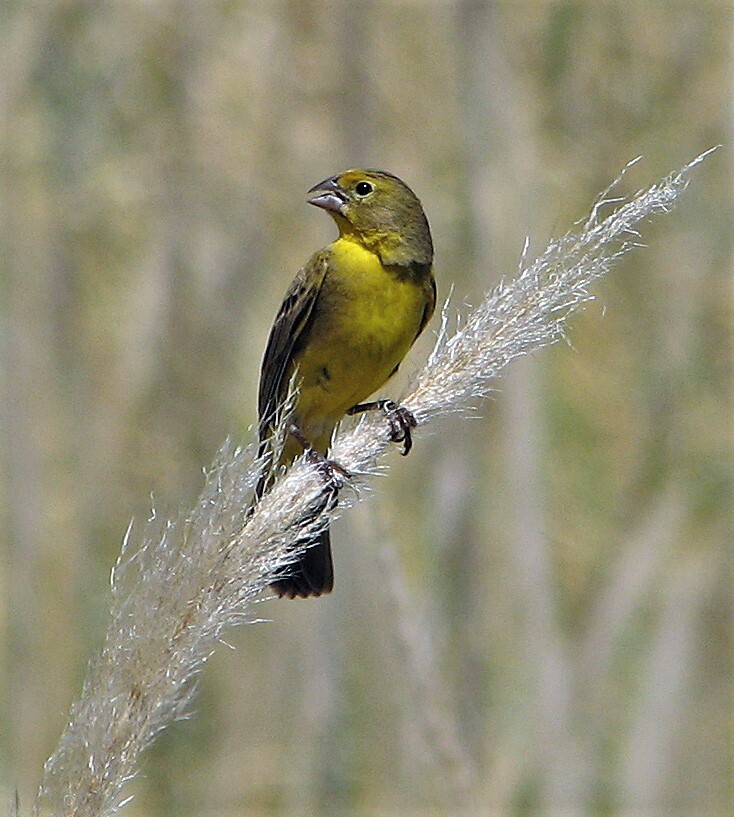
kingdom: Animalia
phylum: Chordata
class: Aves
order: Passeriformes
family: Thraupidae
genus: Sicalis
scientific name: Sicalis luteola
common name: Grassland yellow-finch
